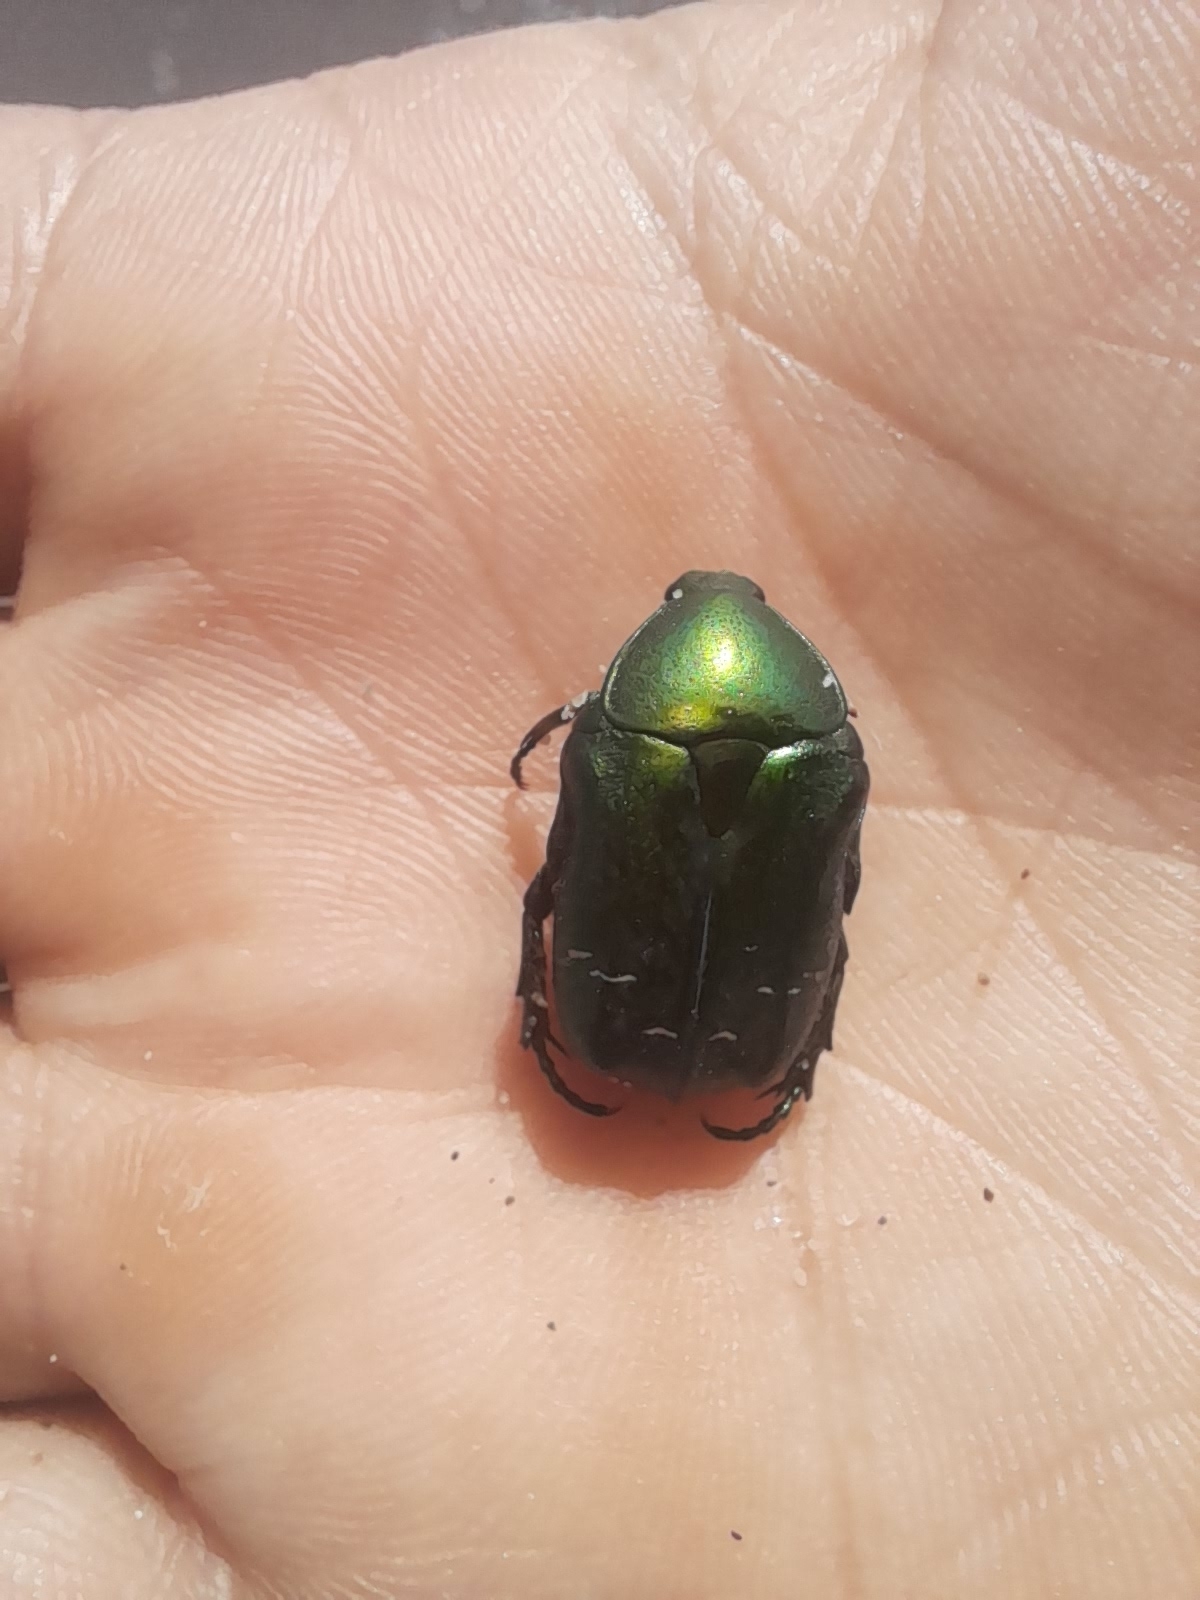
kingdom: Animalia
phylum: Arthropoda
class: Insecta
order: Coleoptera
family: Scarabaeidae
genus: Cetonia
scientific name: Cetonia aurata
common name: Rose chafer
